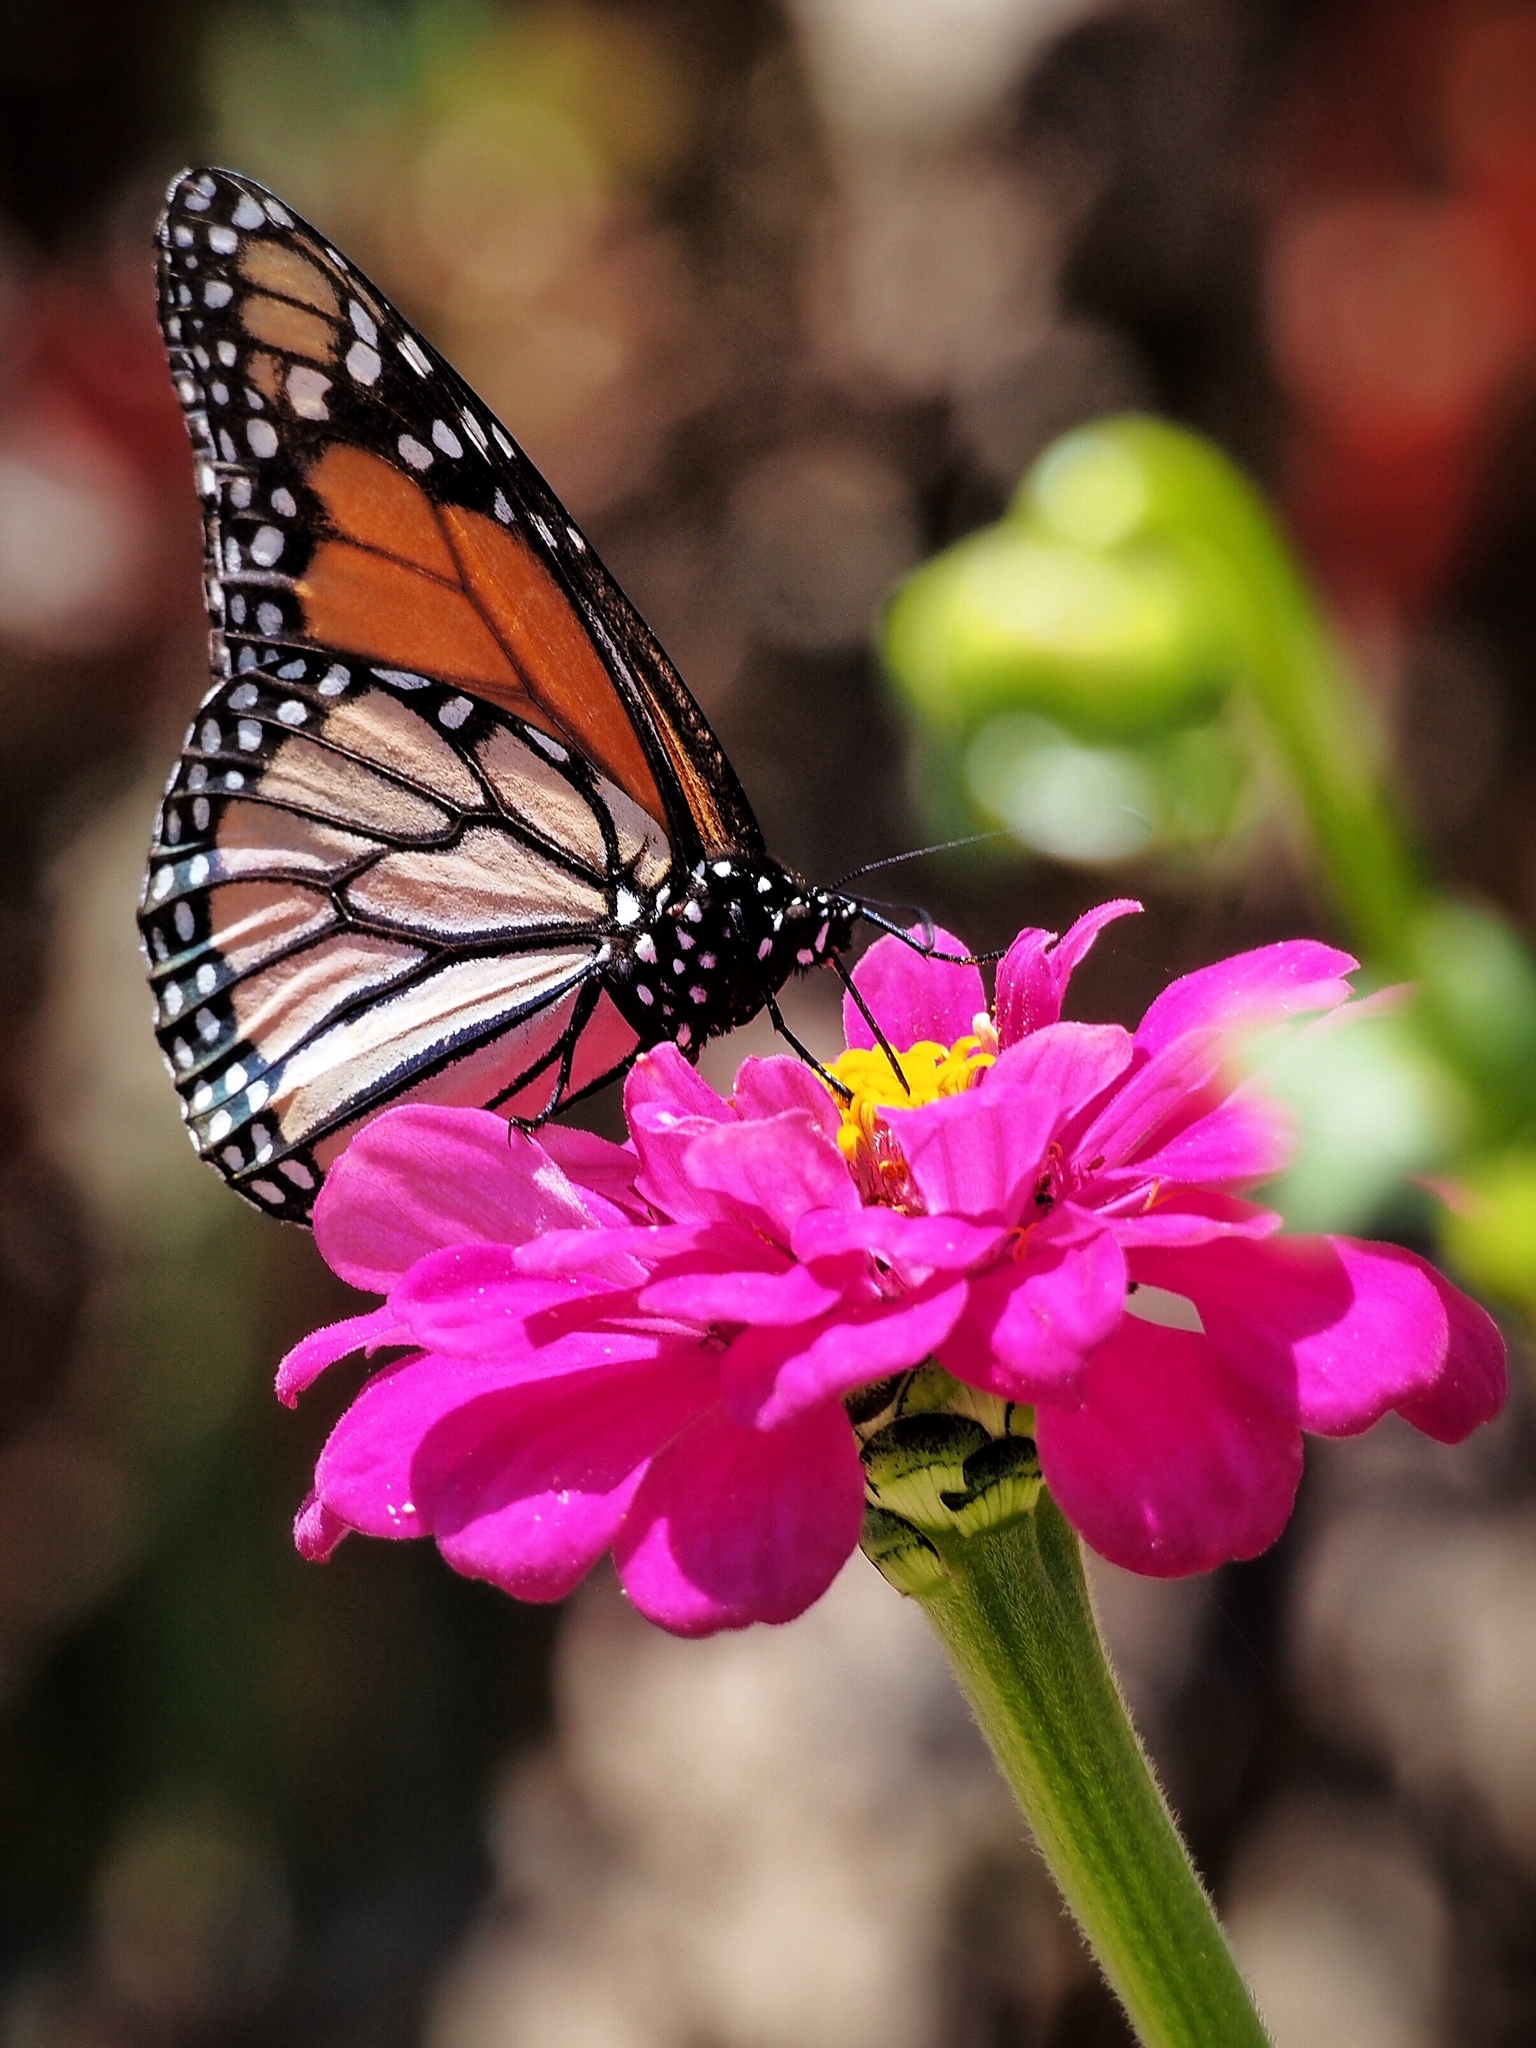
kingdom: Animalia
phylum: Arthropoda
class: Insecta
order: Lepidoptera
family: Nymphalidae
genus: Danaus
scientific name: Danaus plexippus
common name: Monarch
